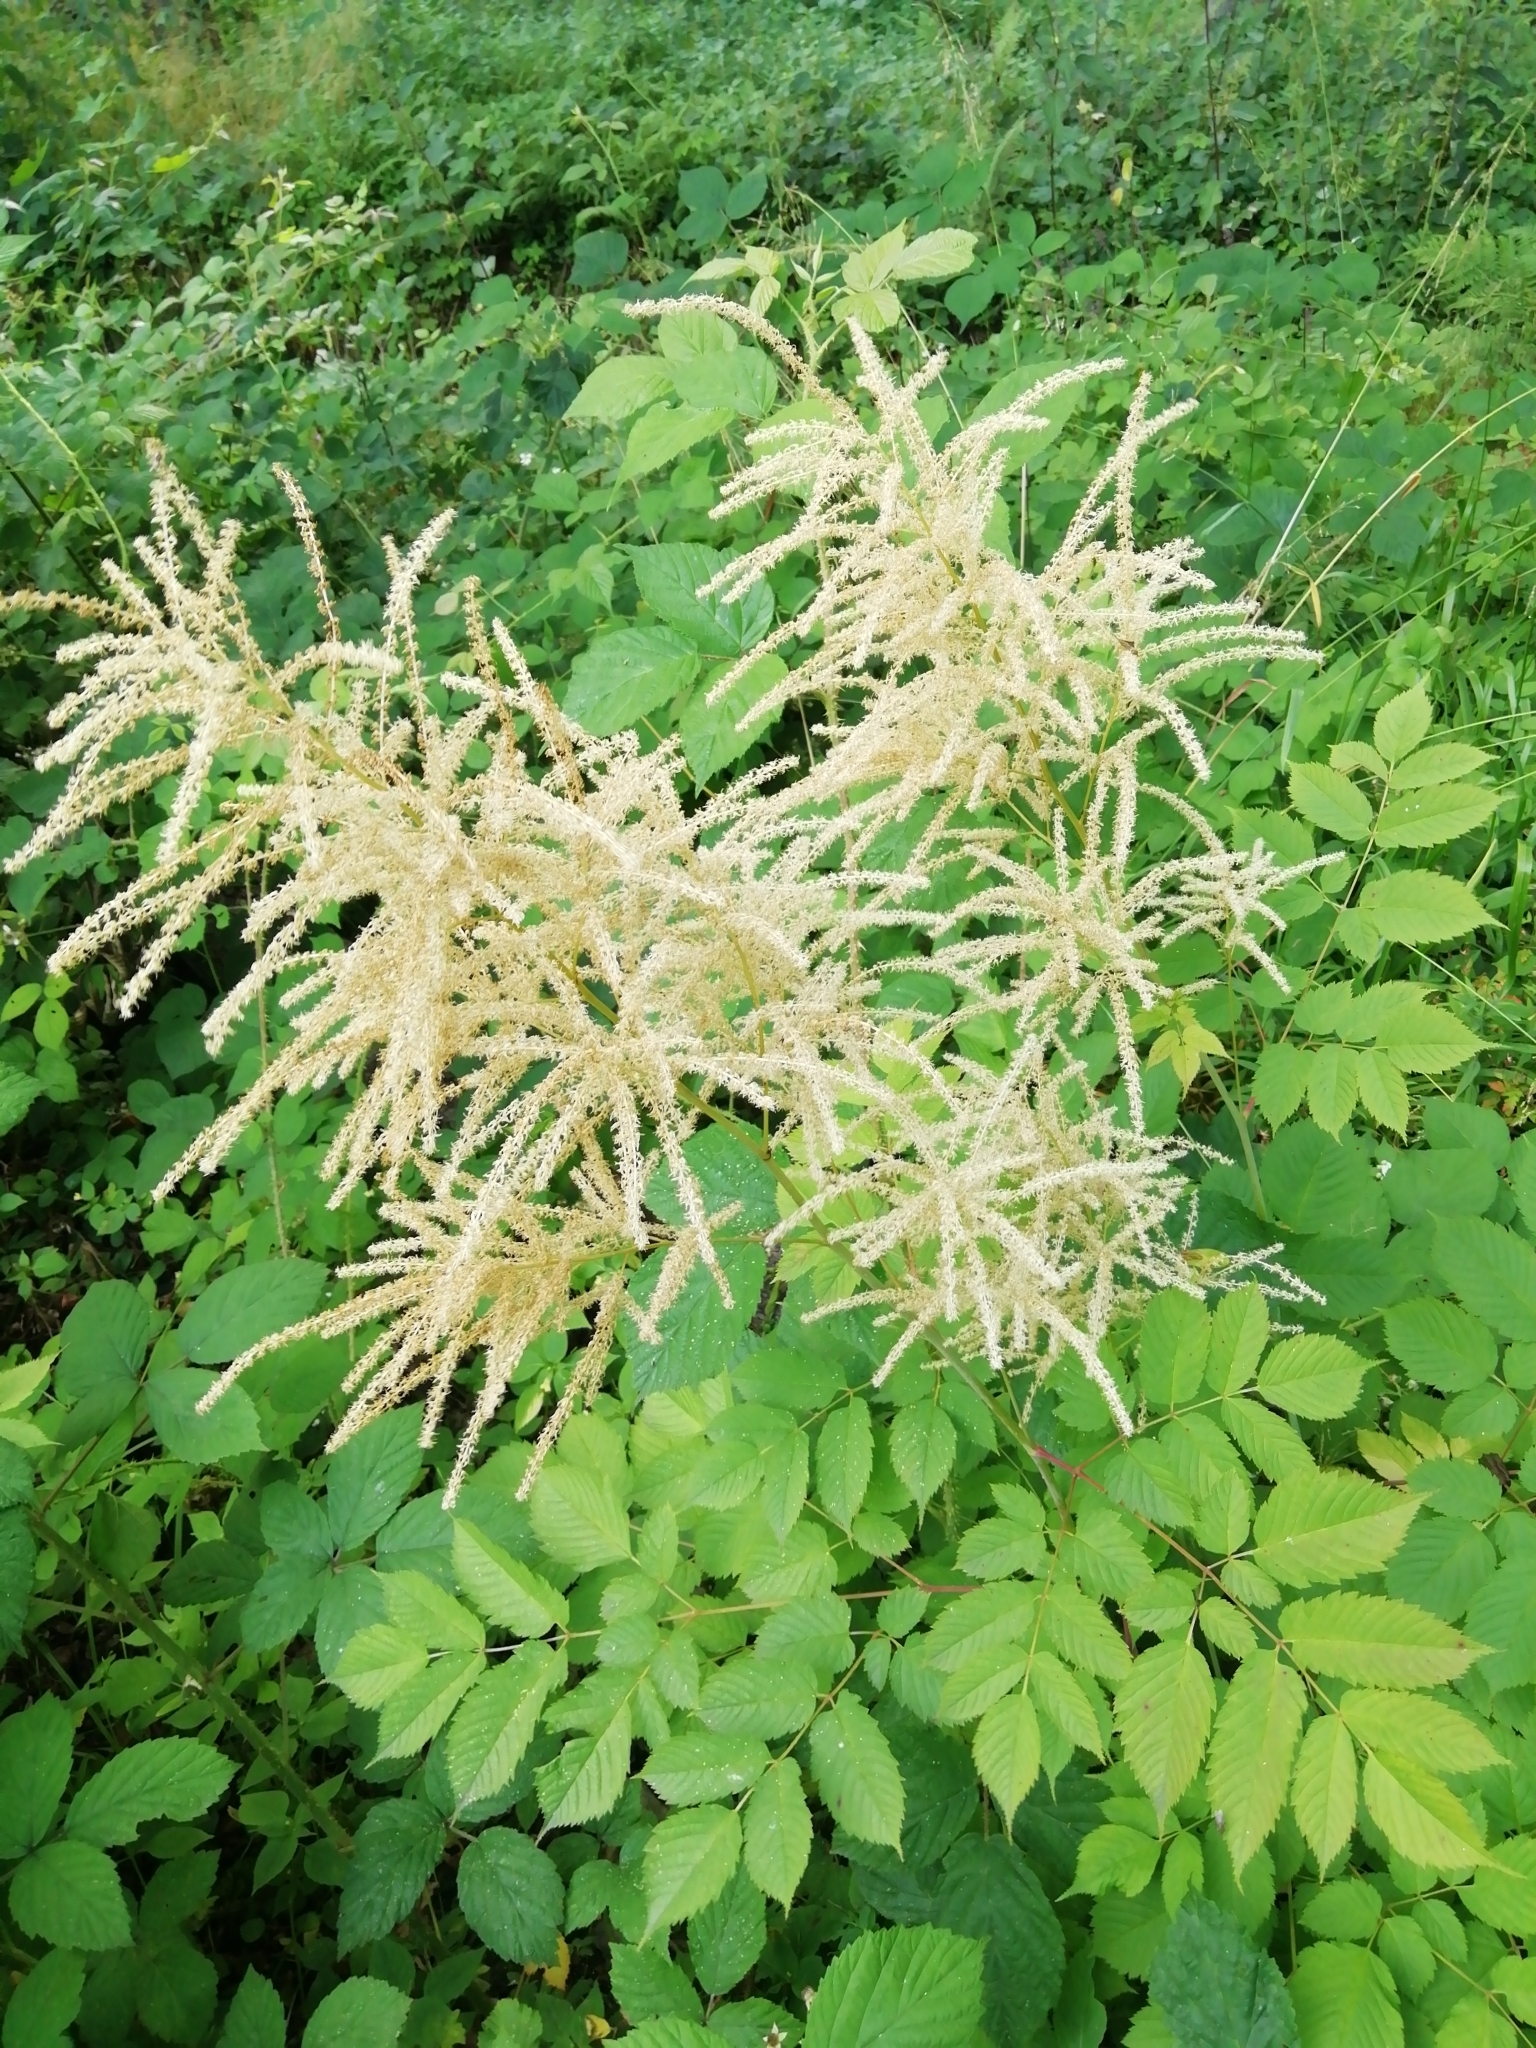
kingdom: Plantae
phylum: Tracheophyta
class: Magnoliopsida
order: Rosales
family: Rosaceae
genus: Aruncus
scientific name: Aruncus dioicus
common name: Buck's-beard
